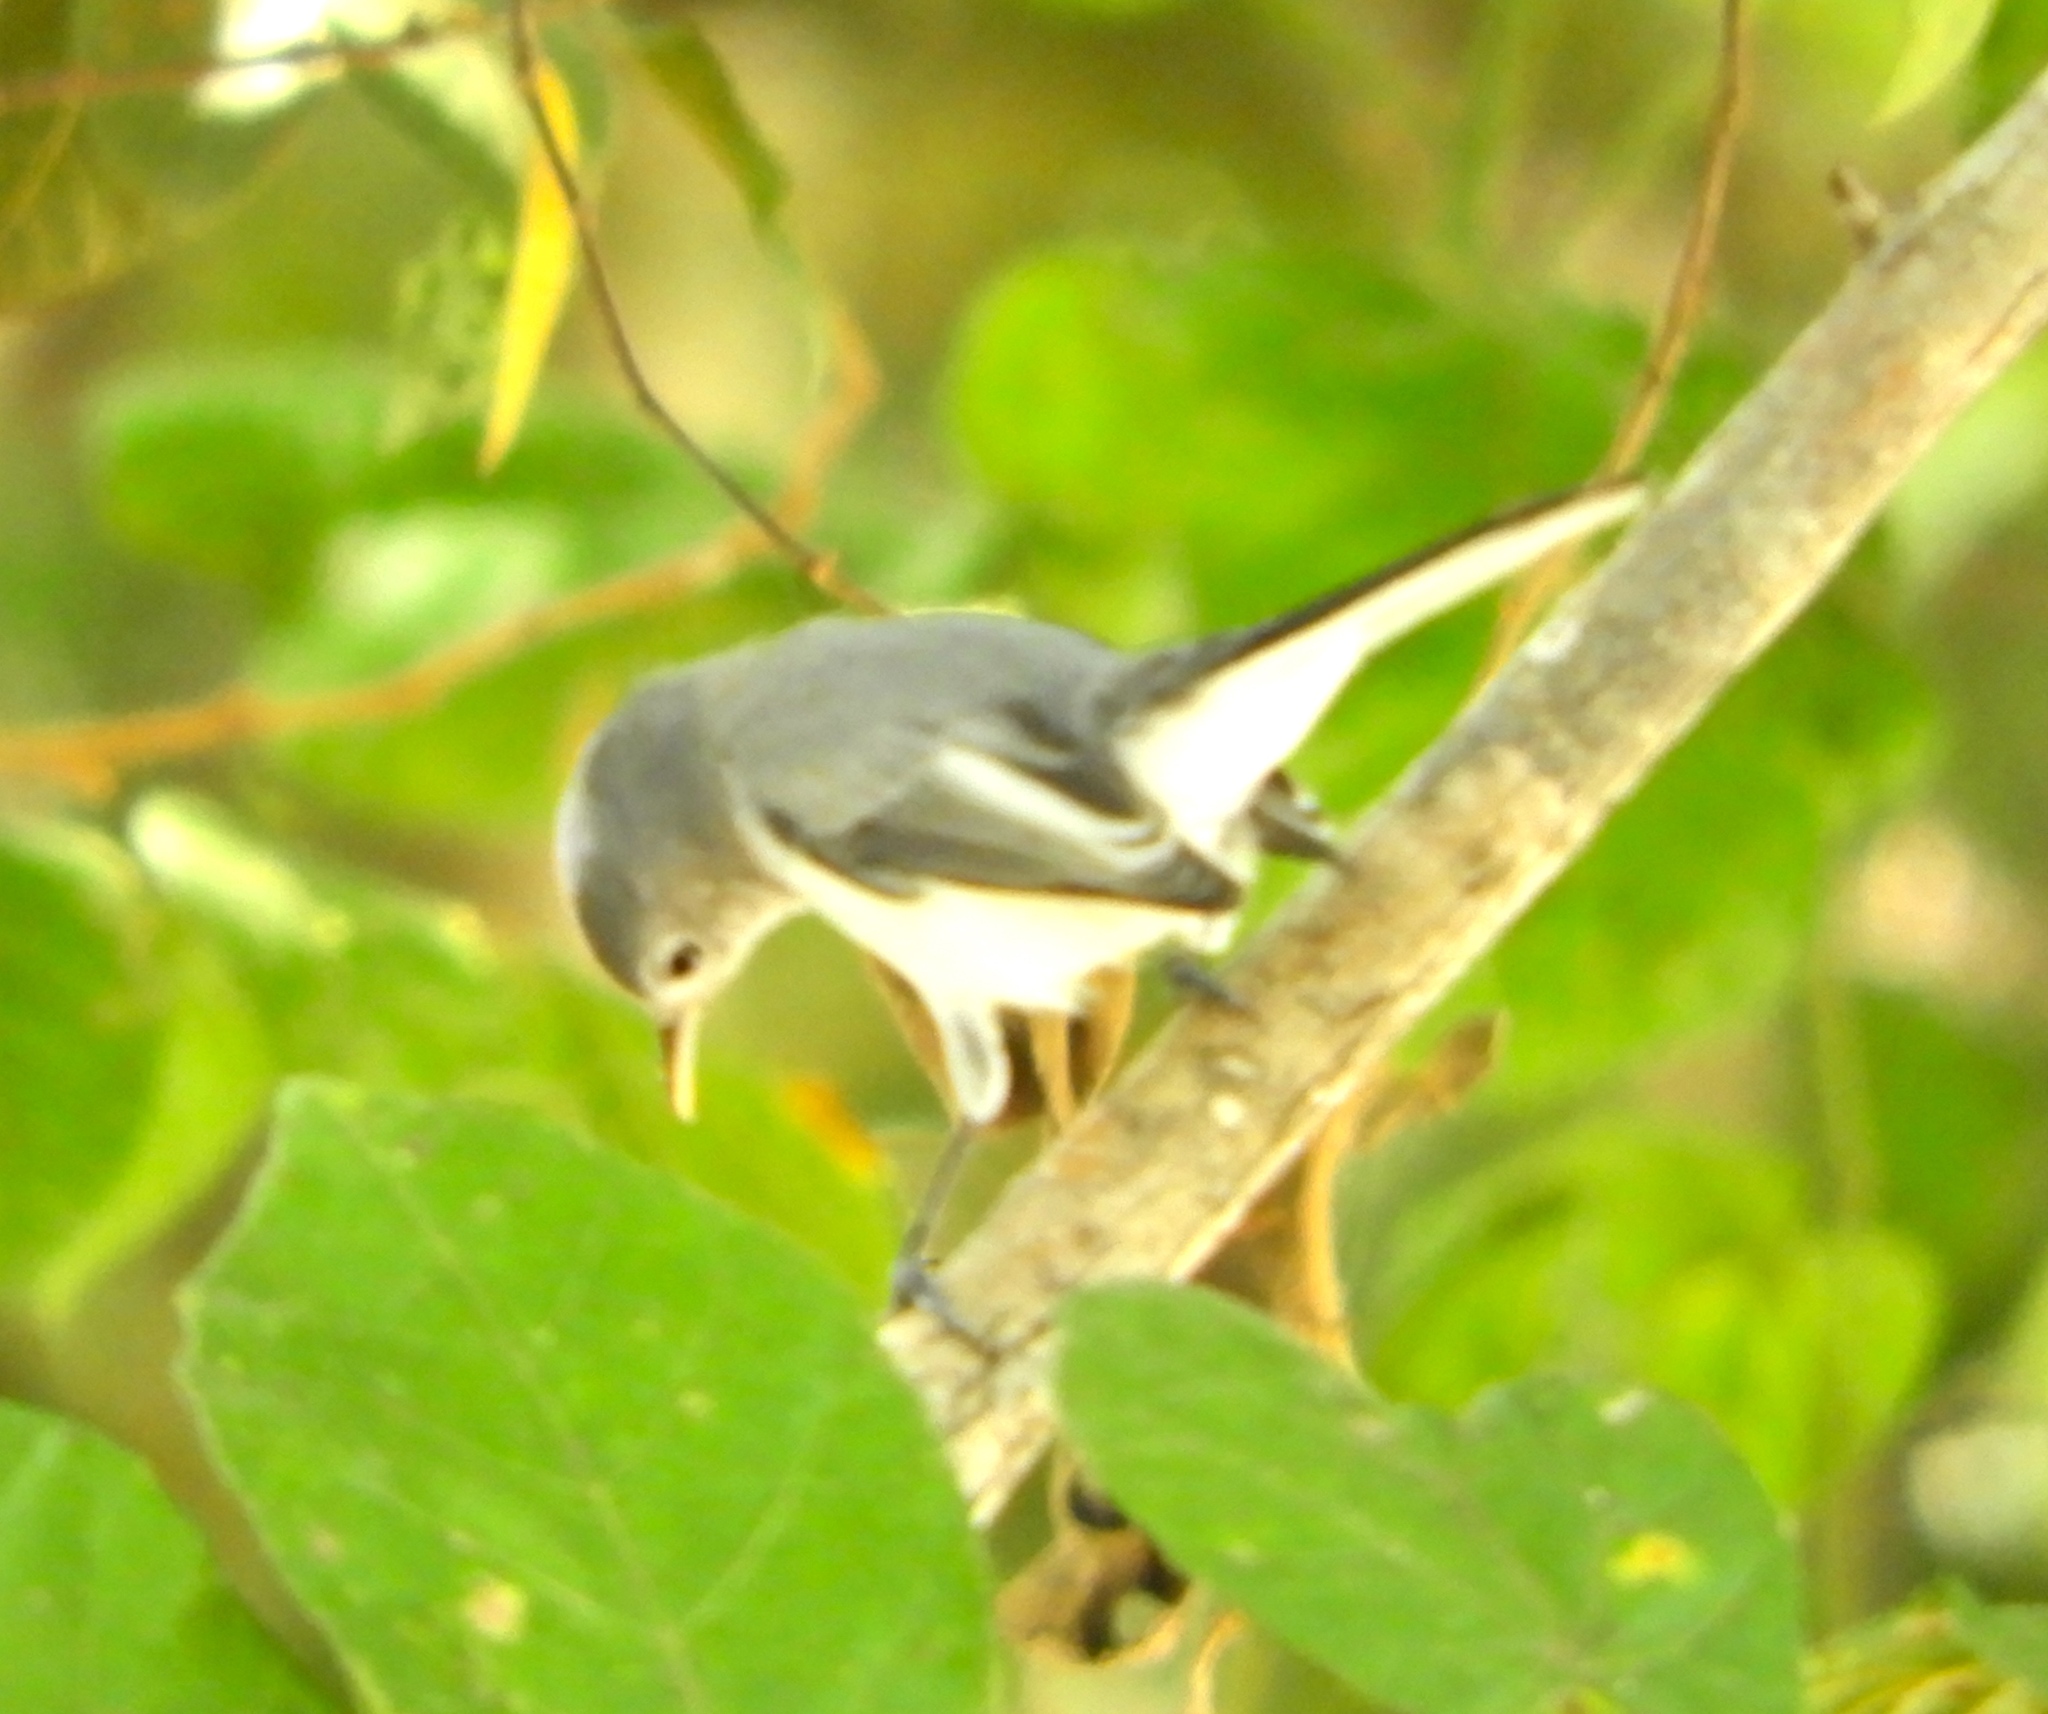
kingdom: Animalia
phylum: Chordata
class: Aves
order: Passeriformes
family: Polioptilidae
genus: Polioptila
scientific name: Polioptila
